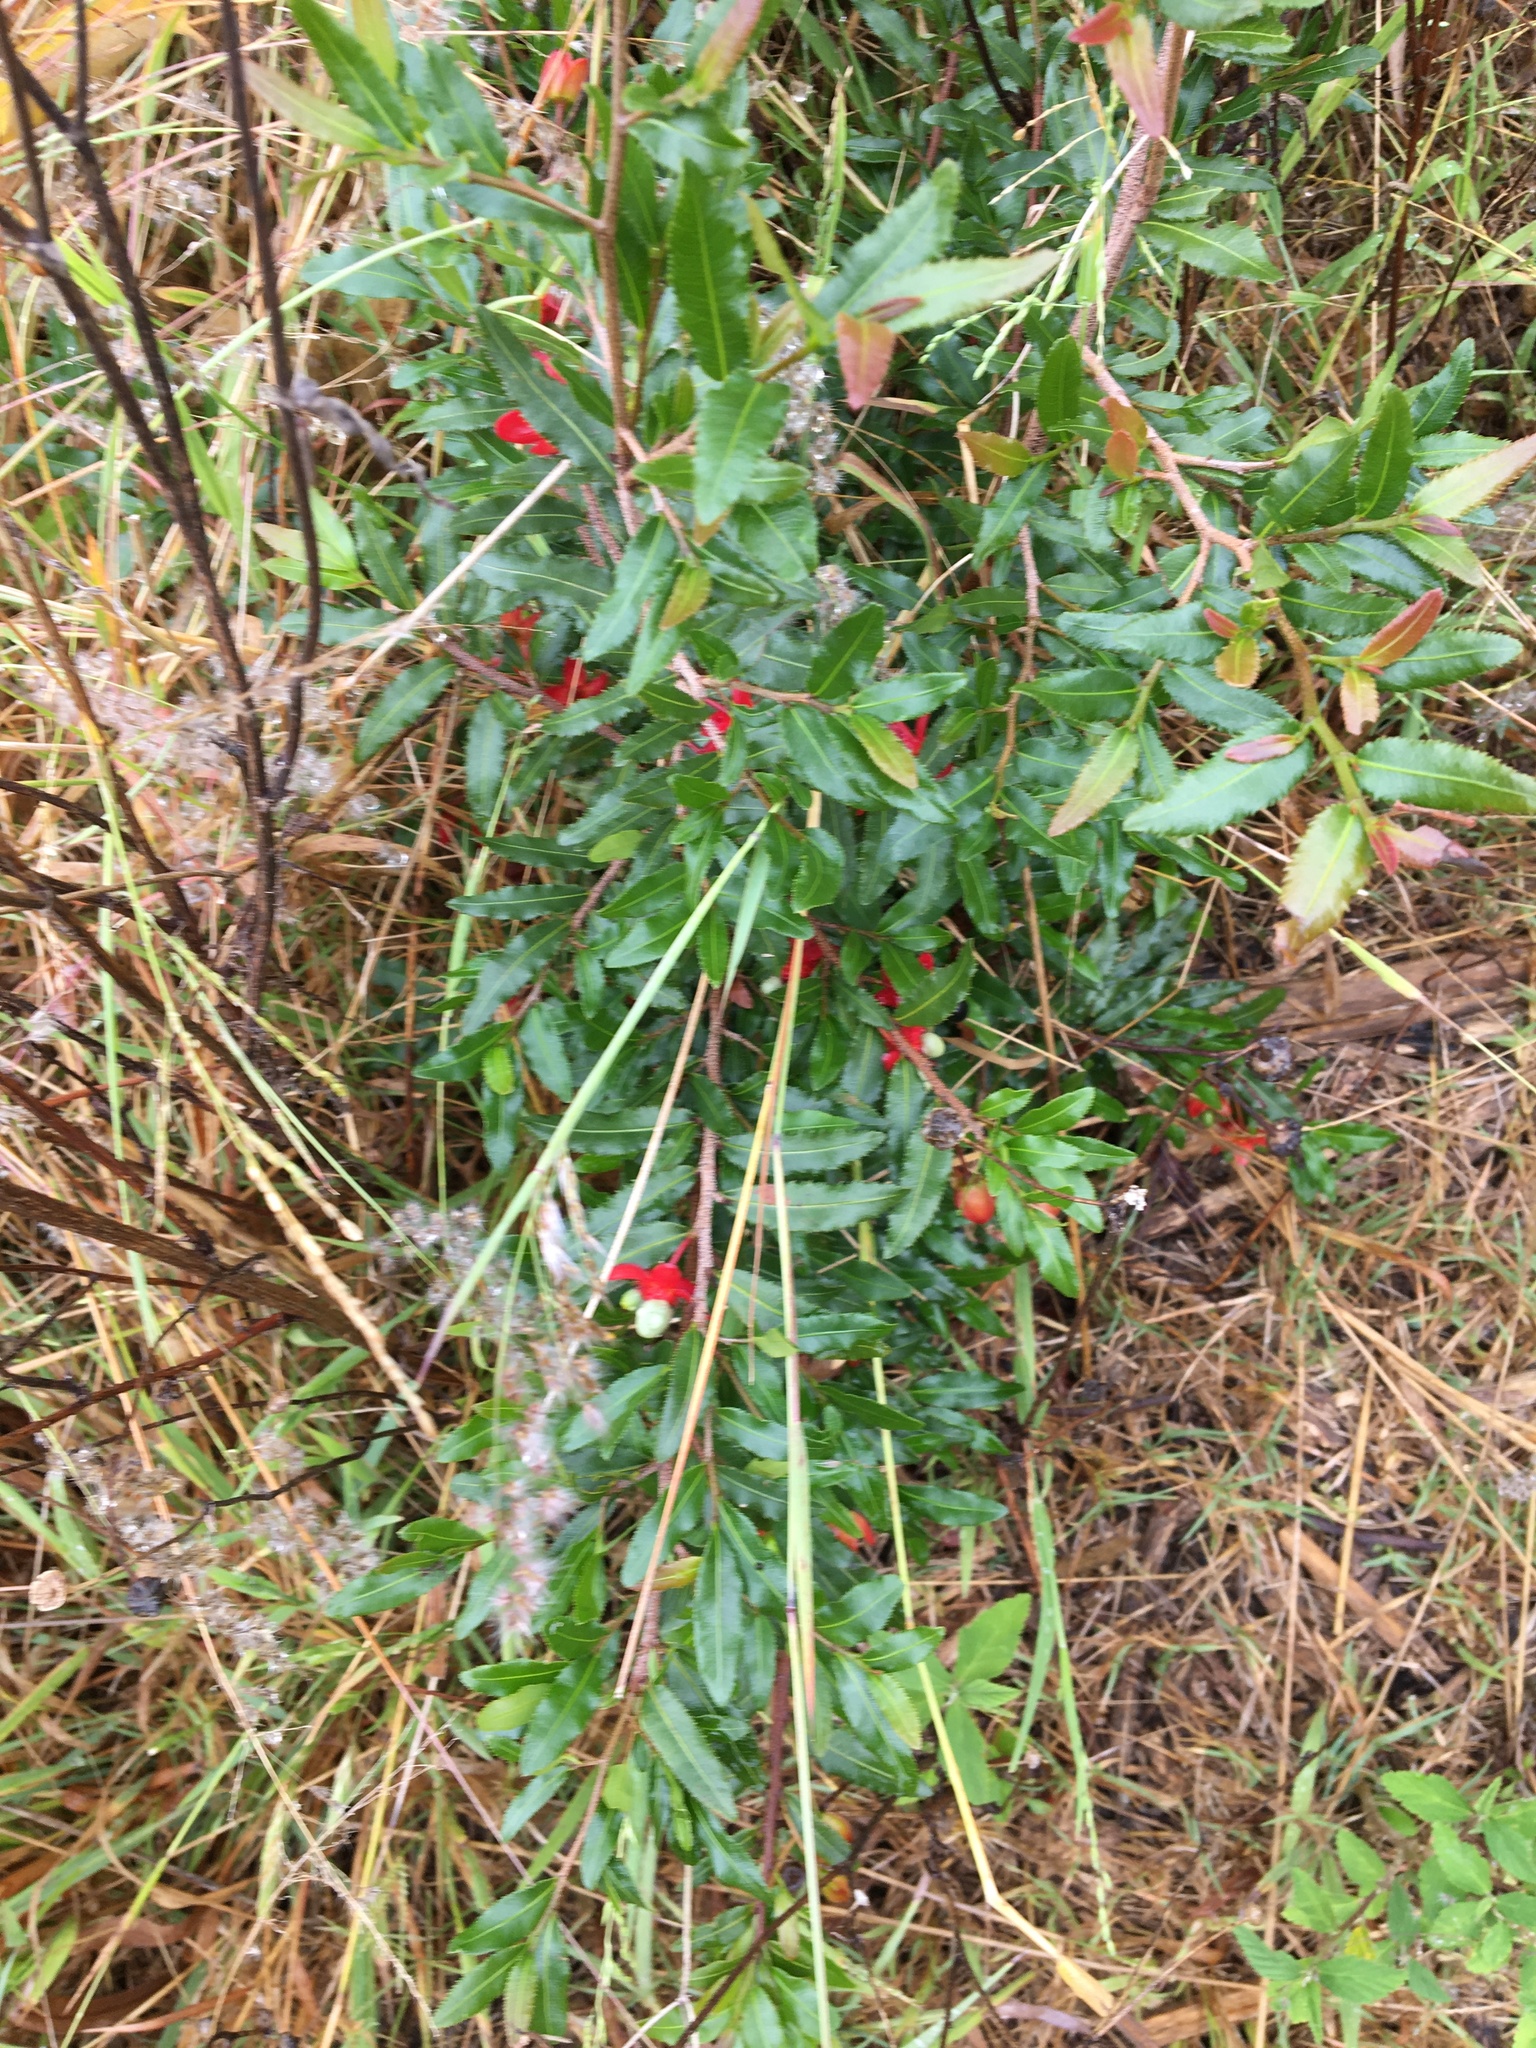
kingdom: Plantae
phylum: Tracheophyta
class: Magnoliopsida
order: Malpighiales
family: Ochnaceae
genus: Ochna
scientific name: Ochna serrulata
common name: Mickey mouse plant
